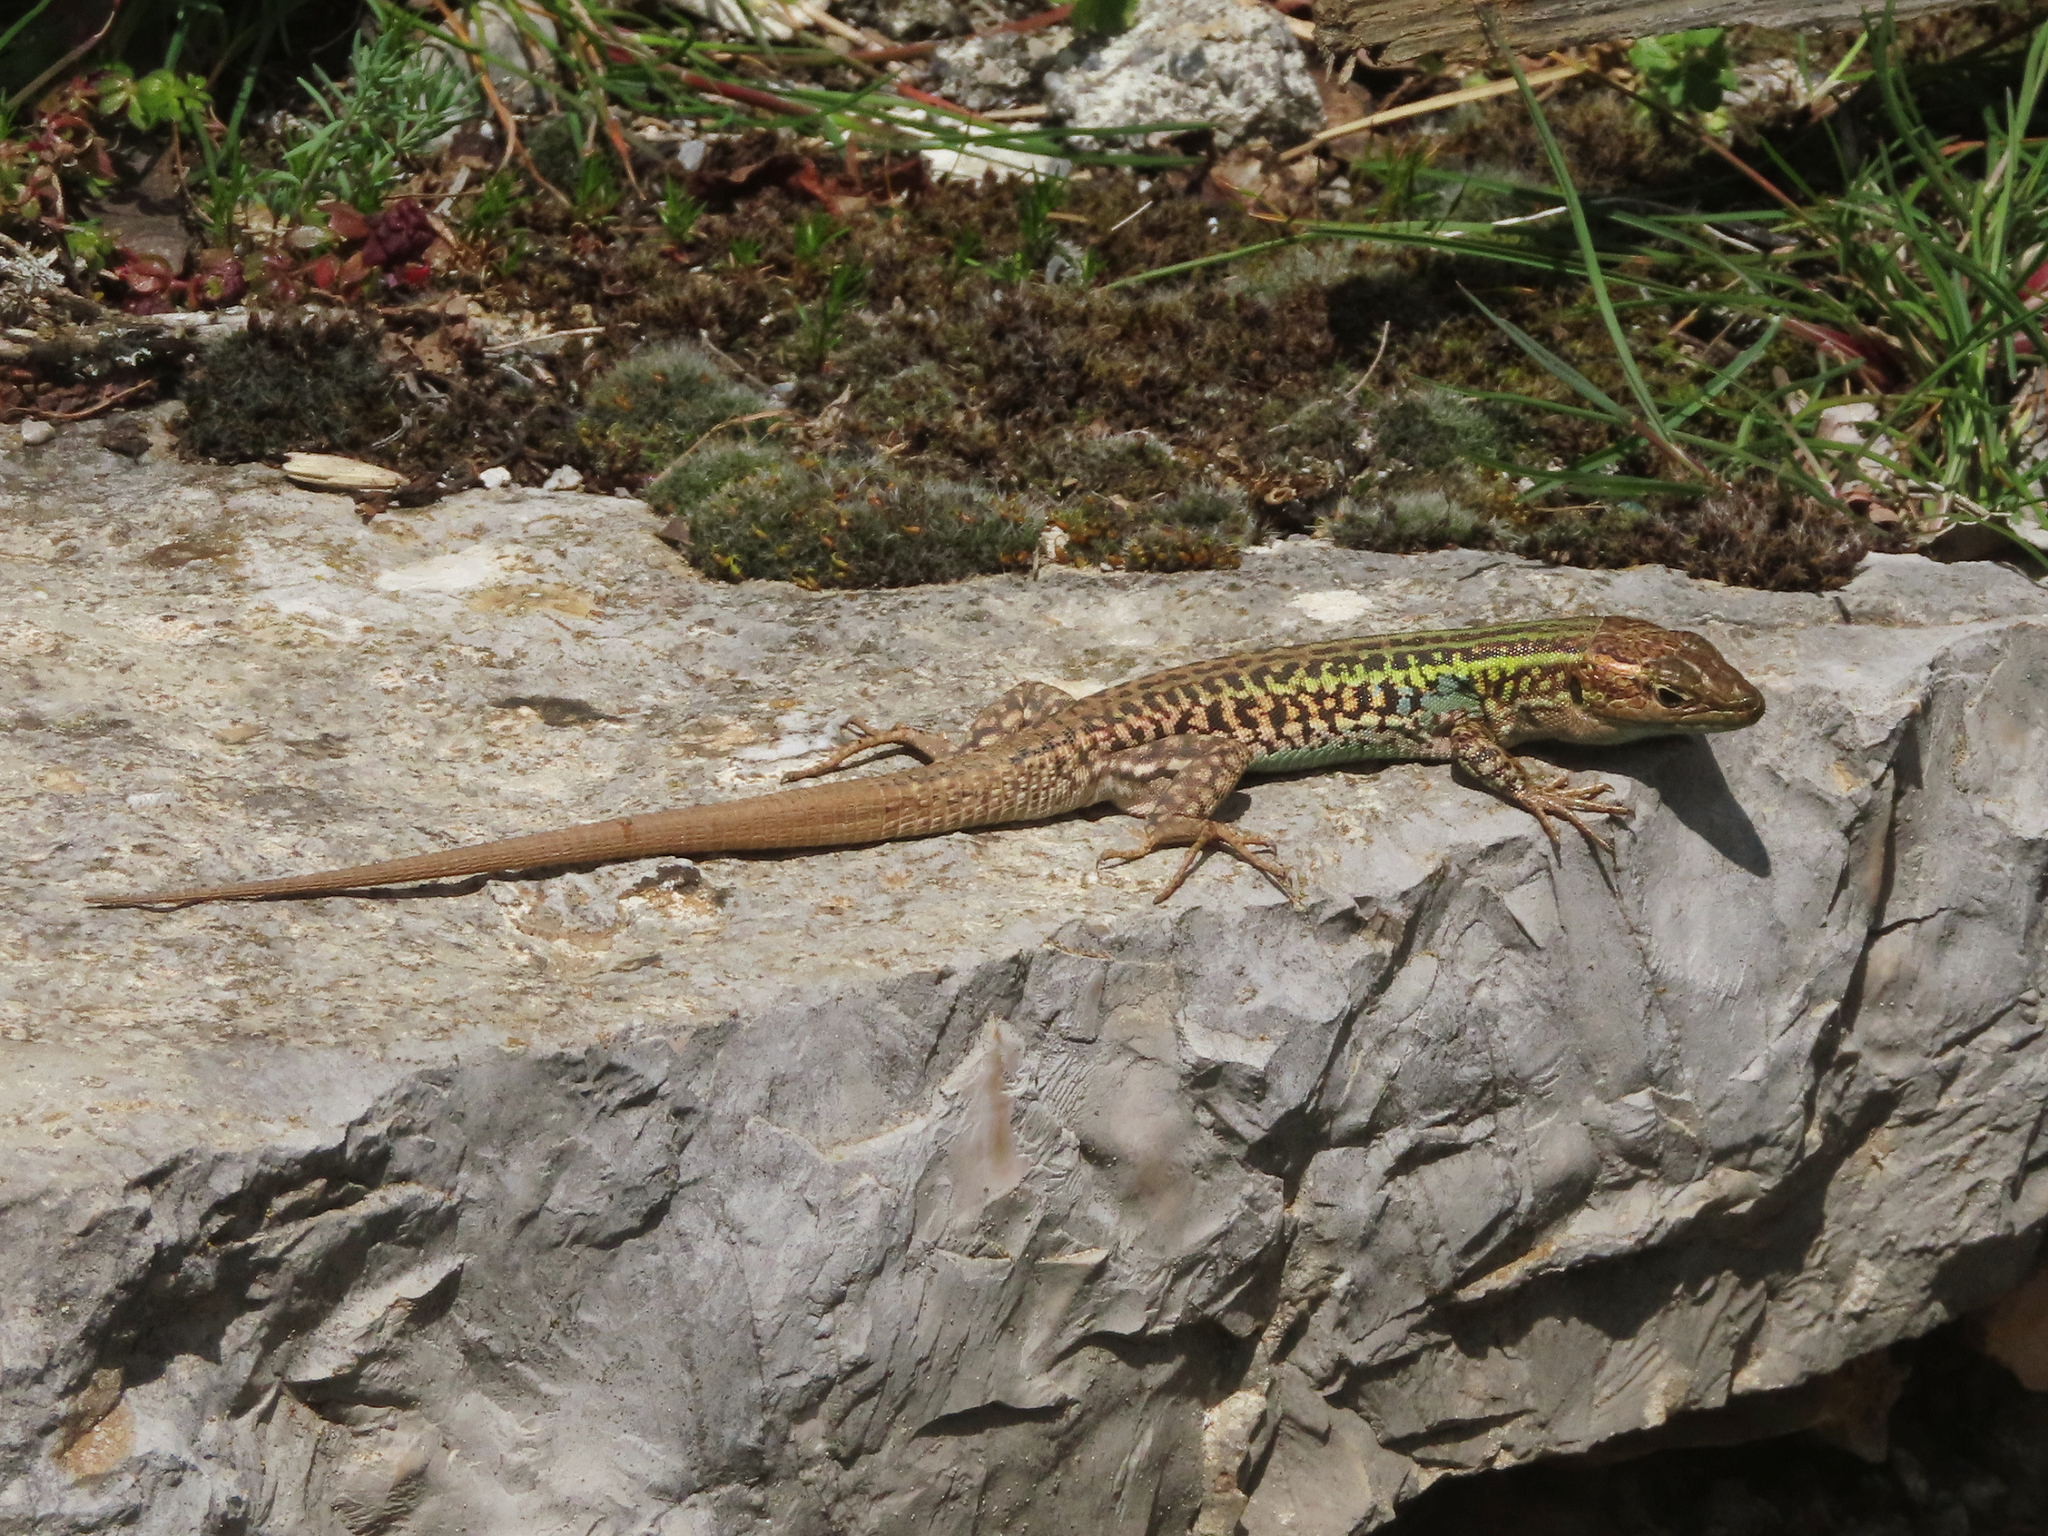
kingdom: Animalia
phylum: Chordata
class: Squamata
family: Lacertidae
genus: Podarcis
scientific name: Podarcis peloponnesiacus
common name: Peloponnese wall lizard
